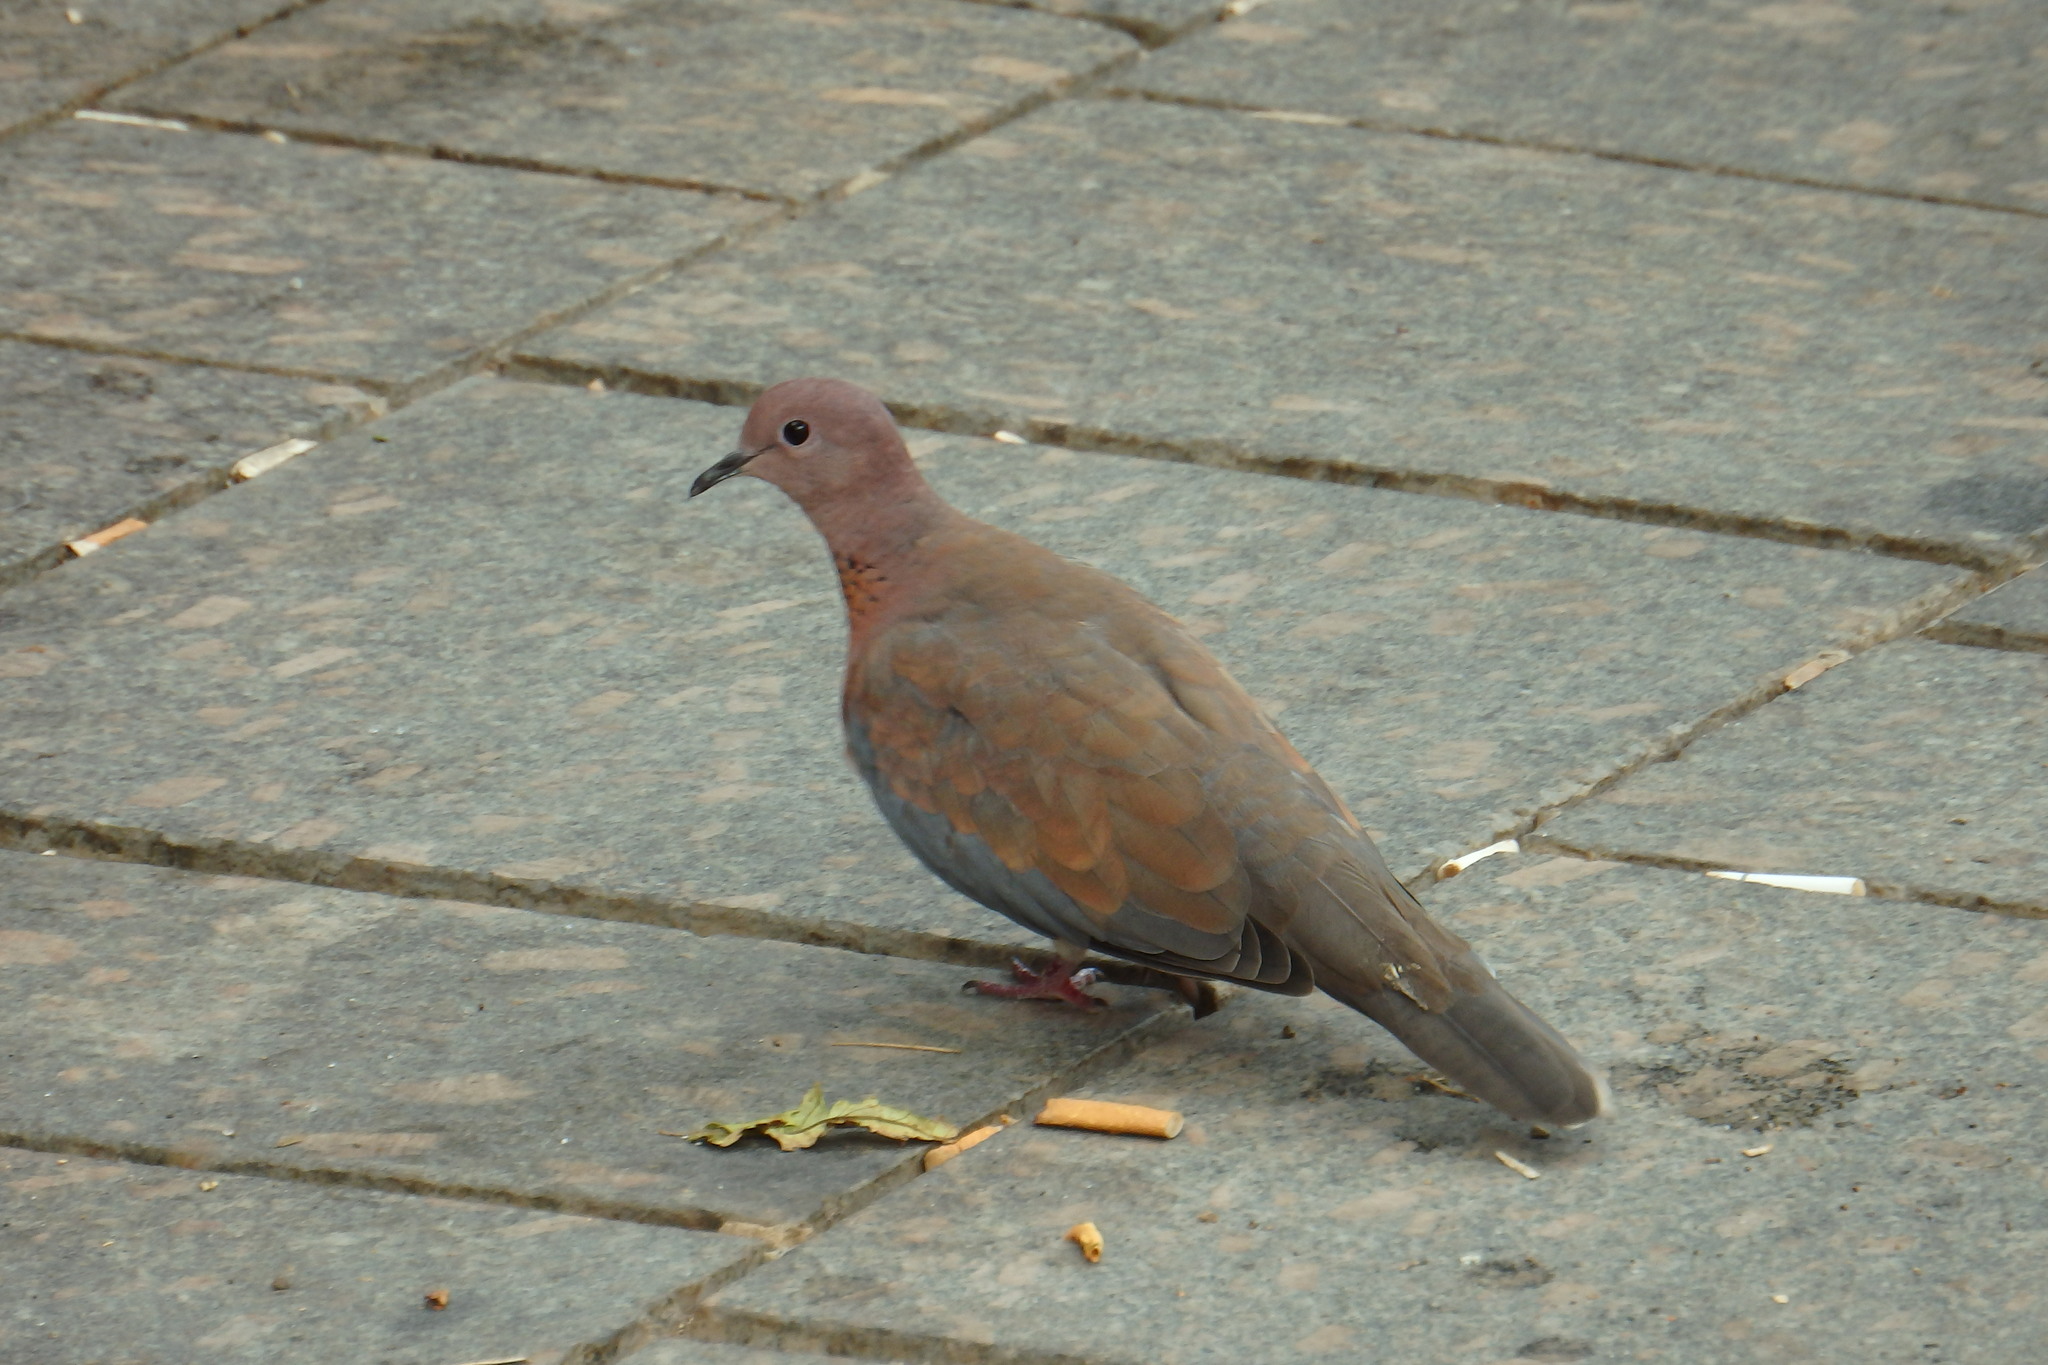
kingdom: Animalia
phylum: Chordata
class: Aves
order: Columbiformes
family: Columbidae
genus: Spilopelia
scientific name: Spilopelia senegalensis
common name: Laughing dove
